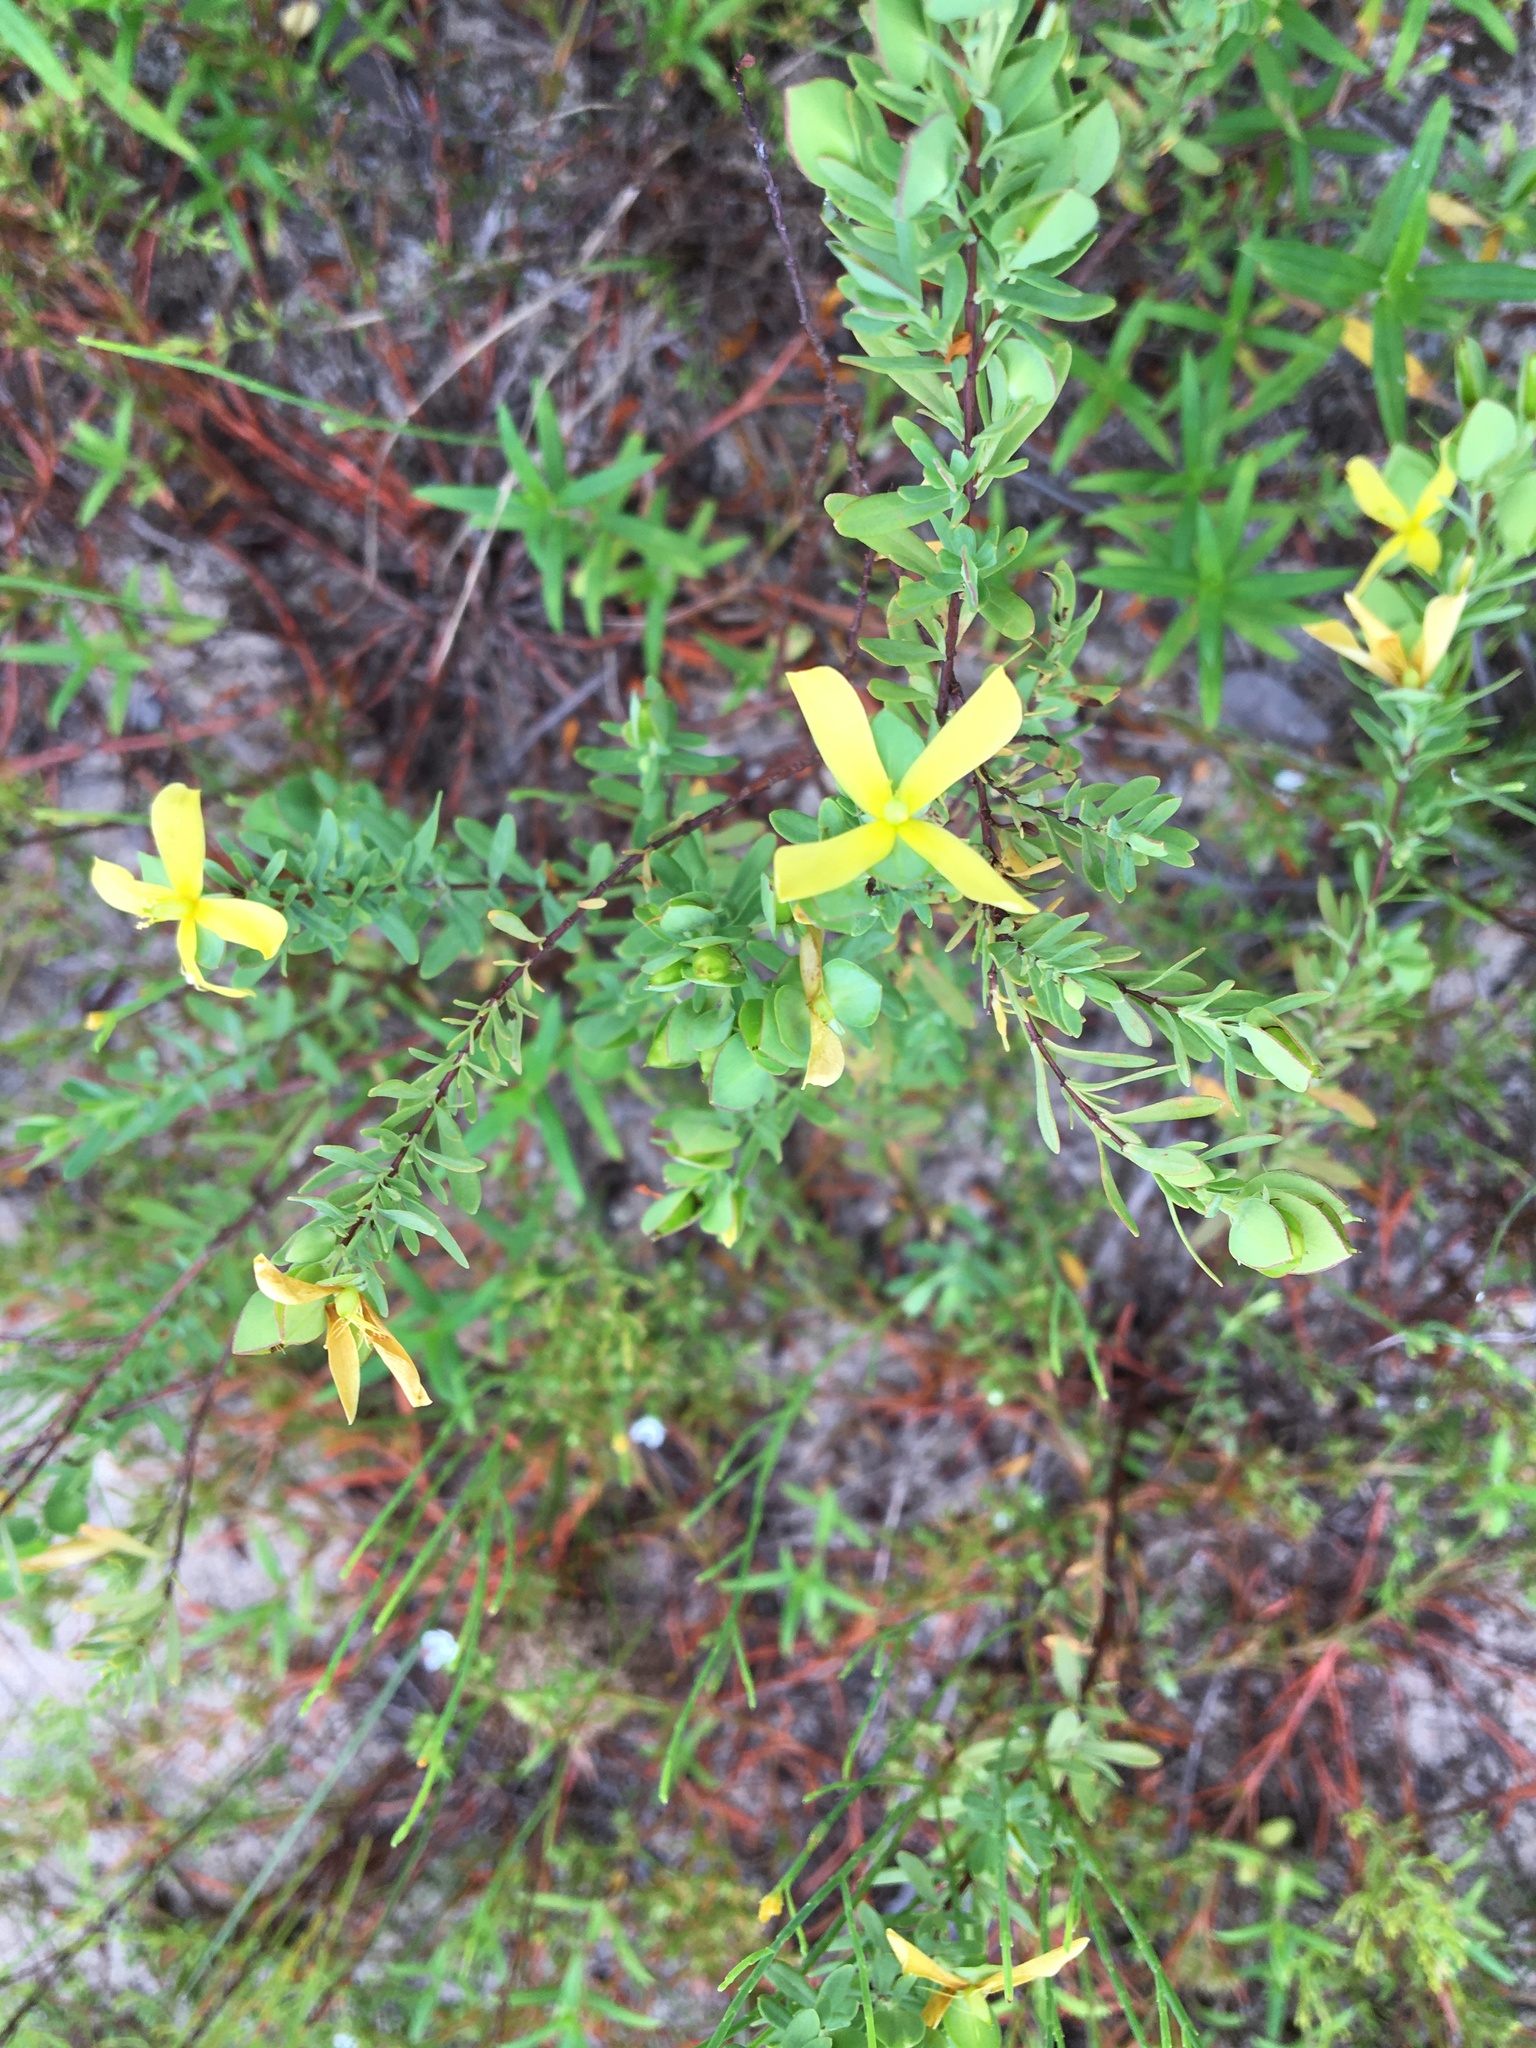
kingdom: Plantae
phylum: Tracheophyta
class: Magnoliopsida
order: Malpighiales
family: Hypericaceae
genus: Hypericum
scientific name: Hypericum hypericoides
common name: St. andrew's cross
